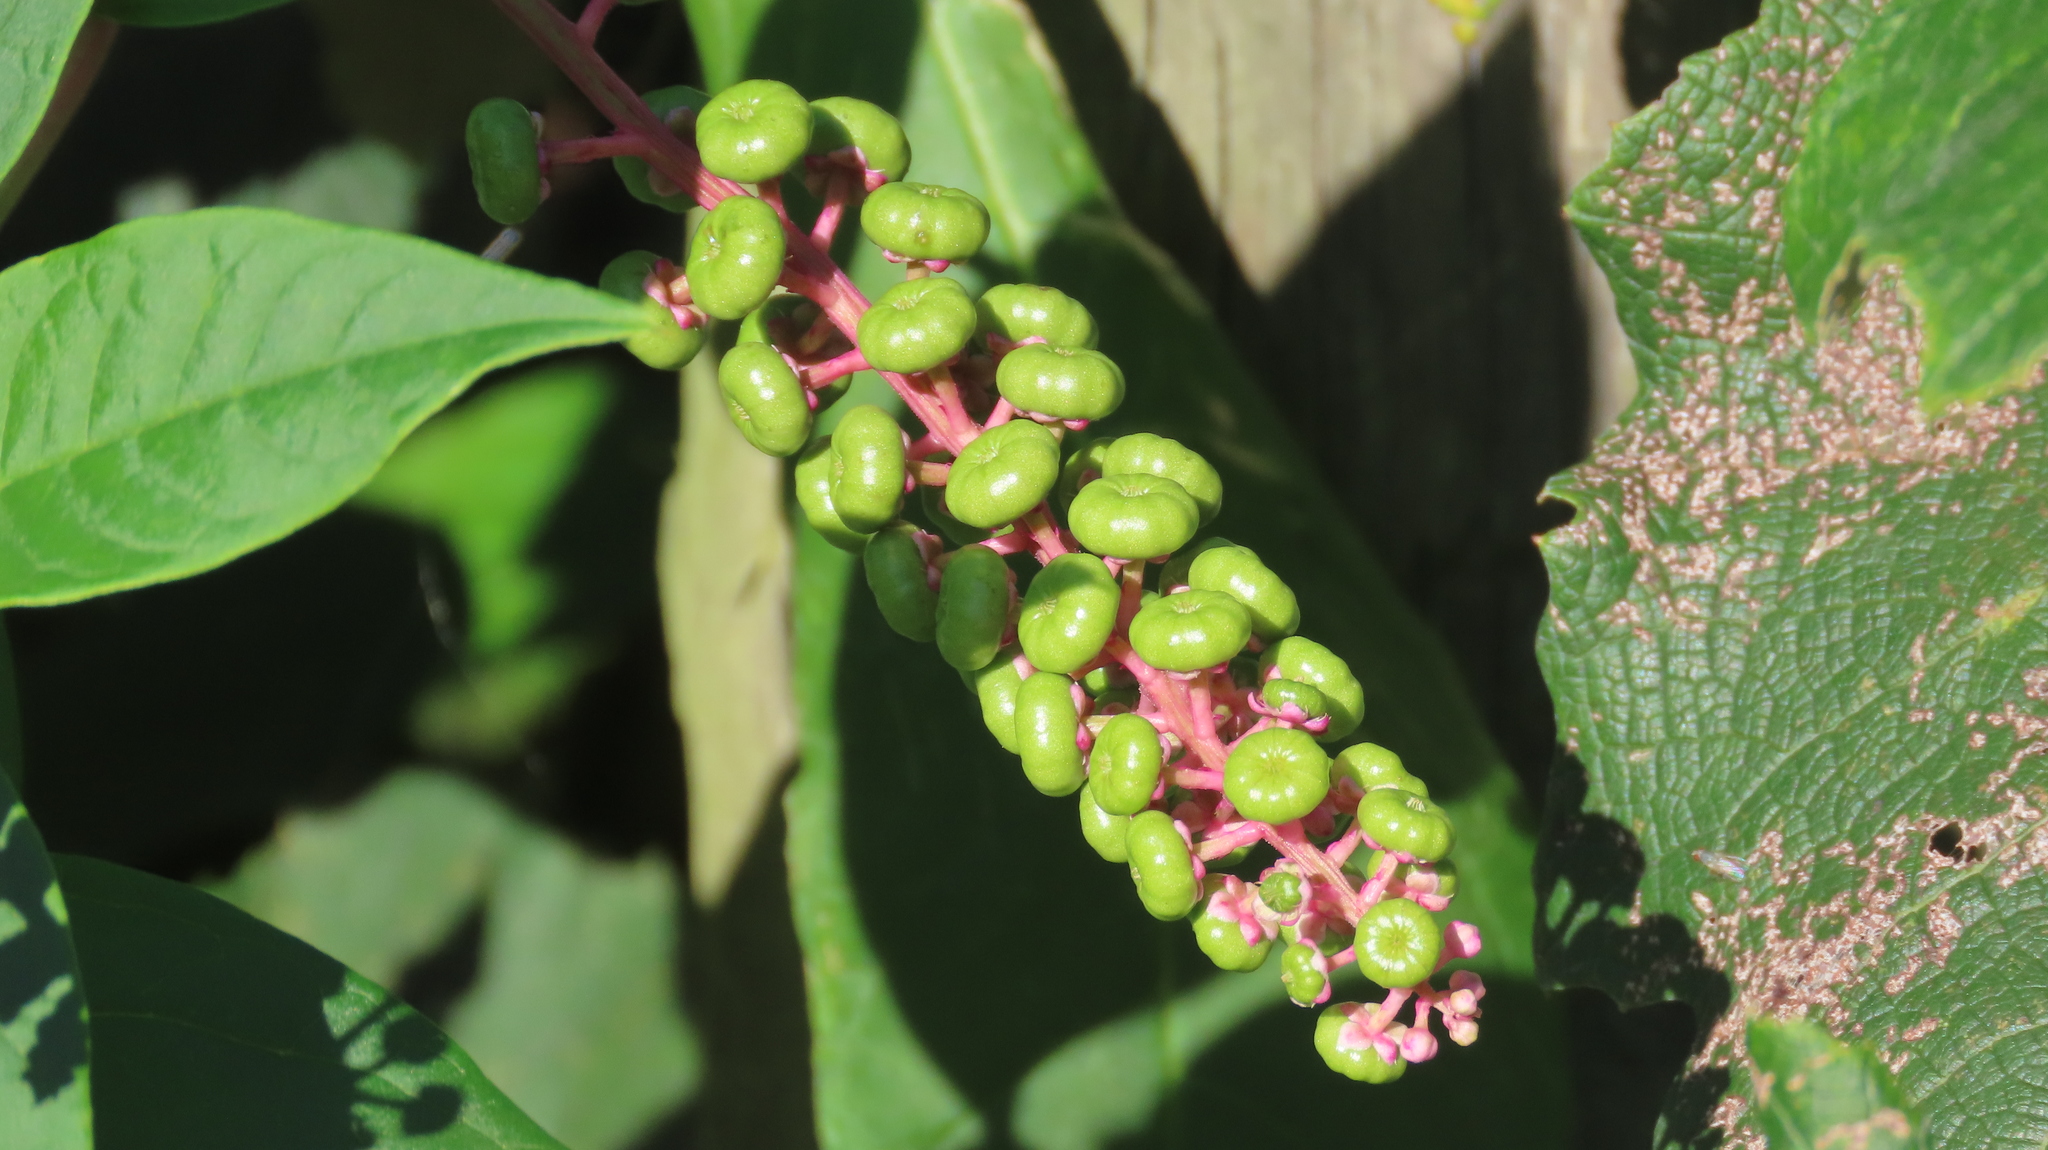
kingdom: Plantae
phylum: Tracheophyta
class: Magnoliopsida
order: Caryophyllales
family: Phytolaccaceae
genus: Phytolacca
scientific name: Phytolacca americana
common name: American pokeweed
